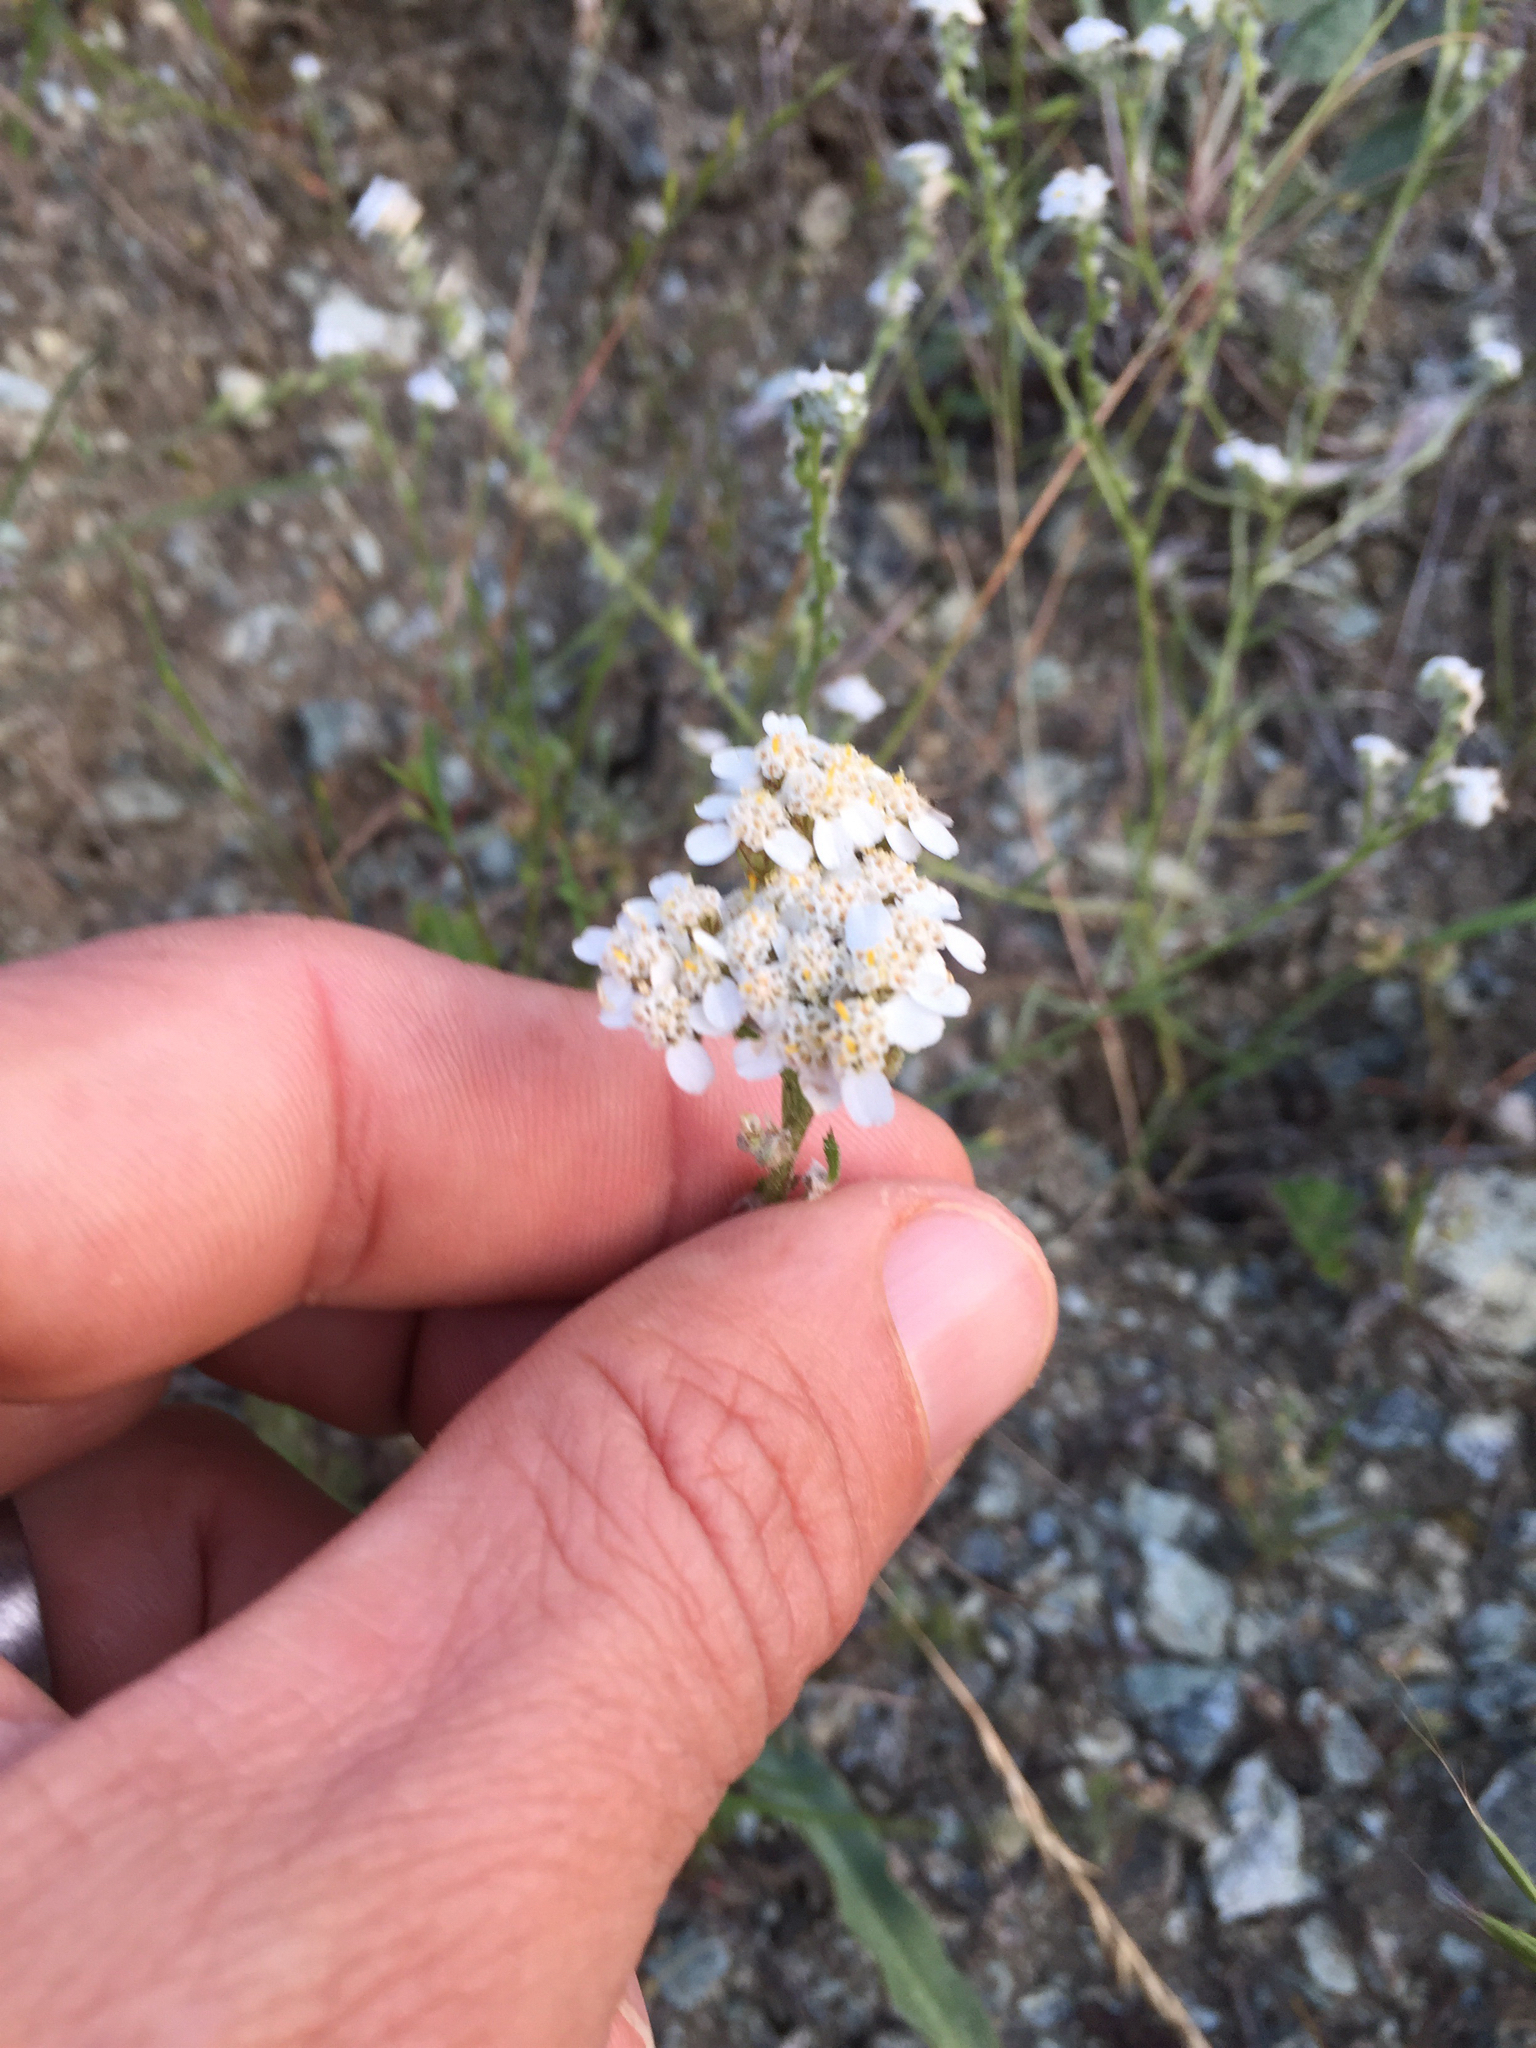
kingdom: Plantae
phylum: Tracheophyta
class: Magnoliopsida
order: Asterales
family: Asteraceae
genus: Achillea
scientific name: Achillea millefolium
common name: Yarrow
